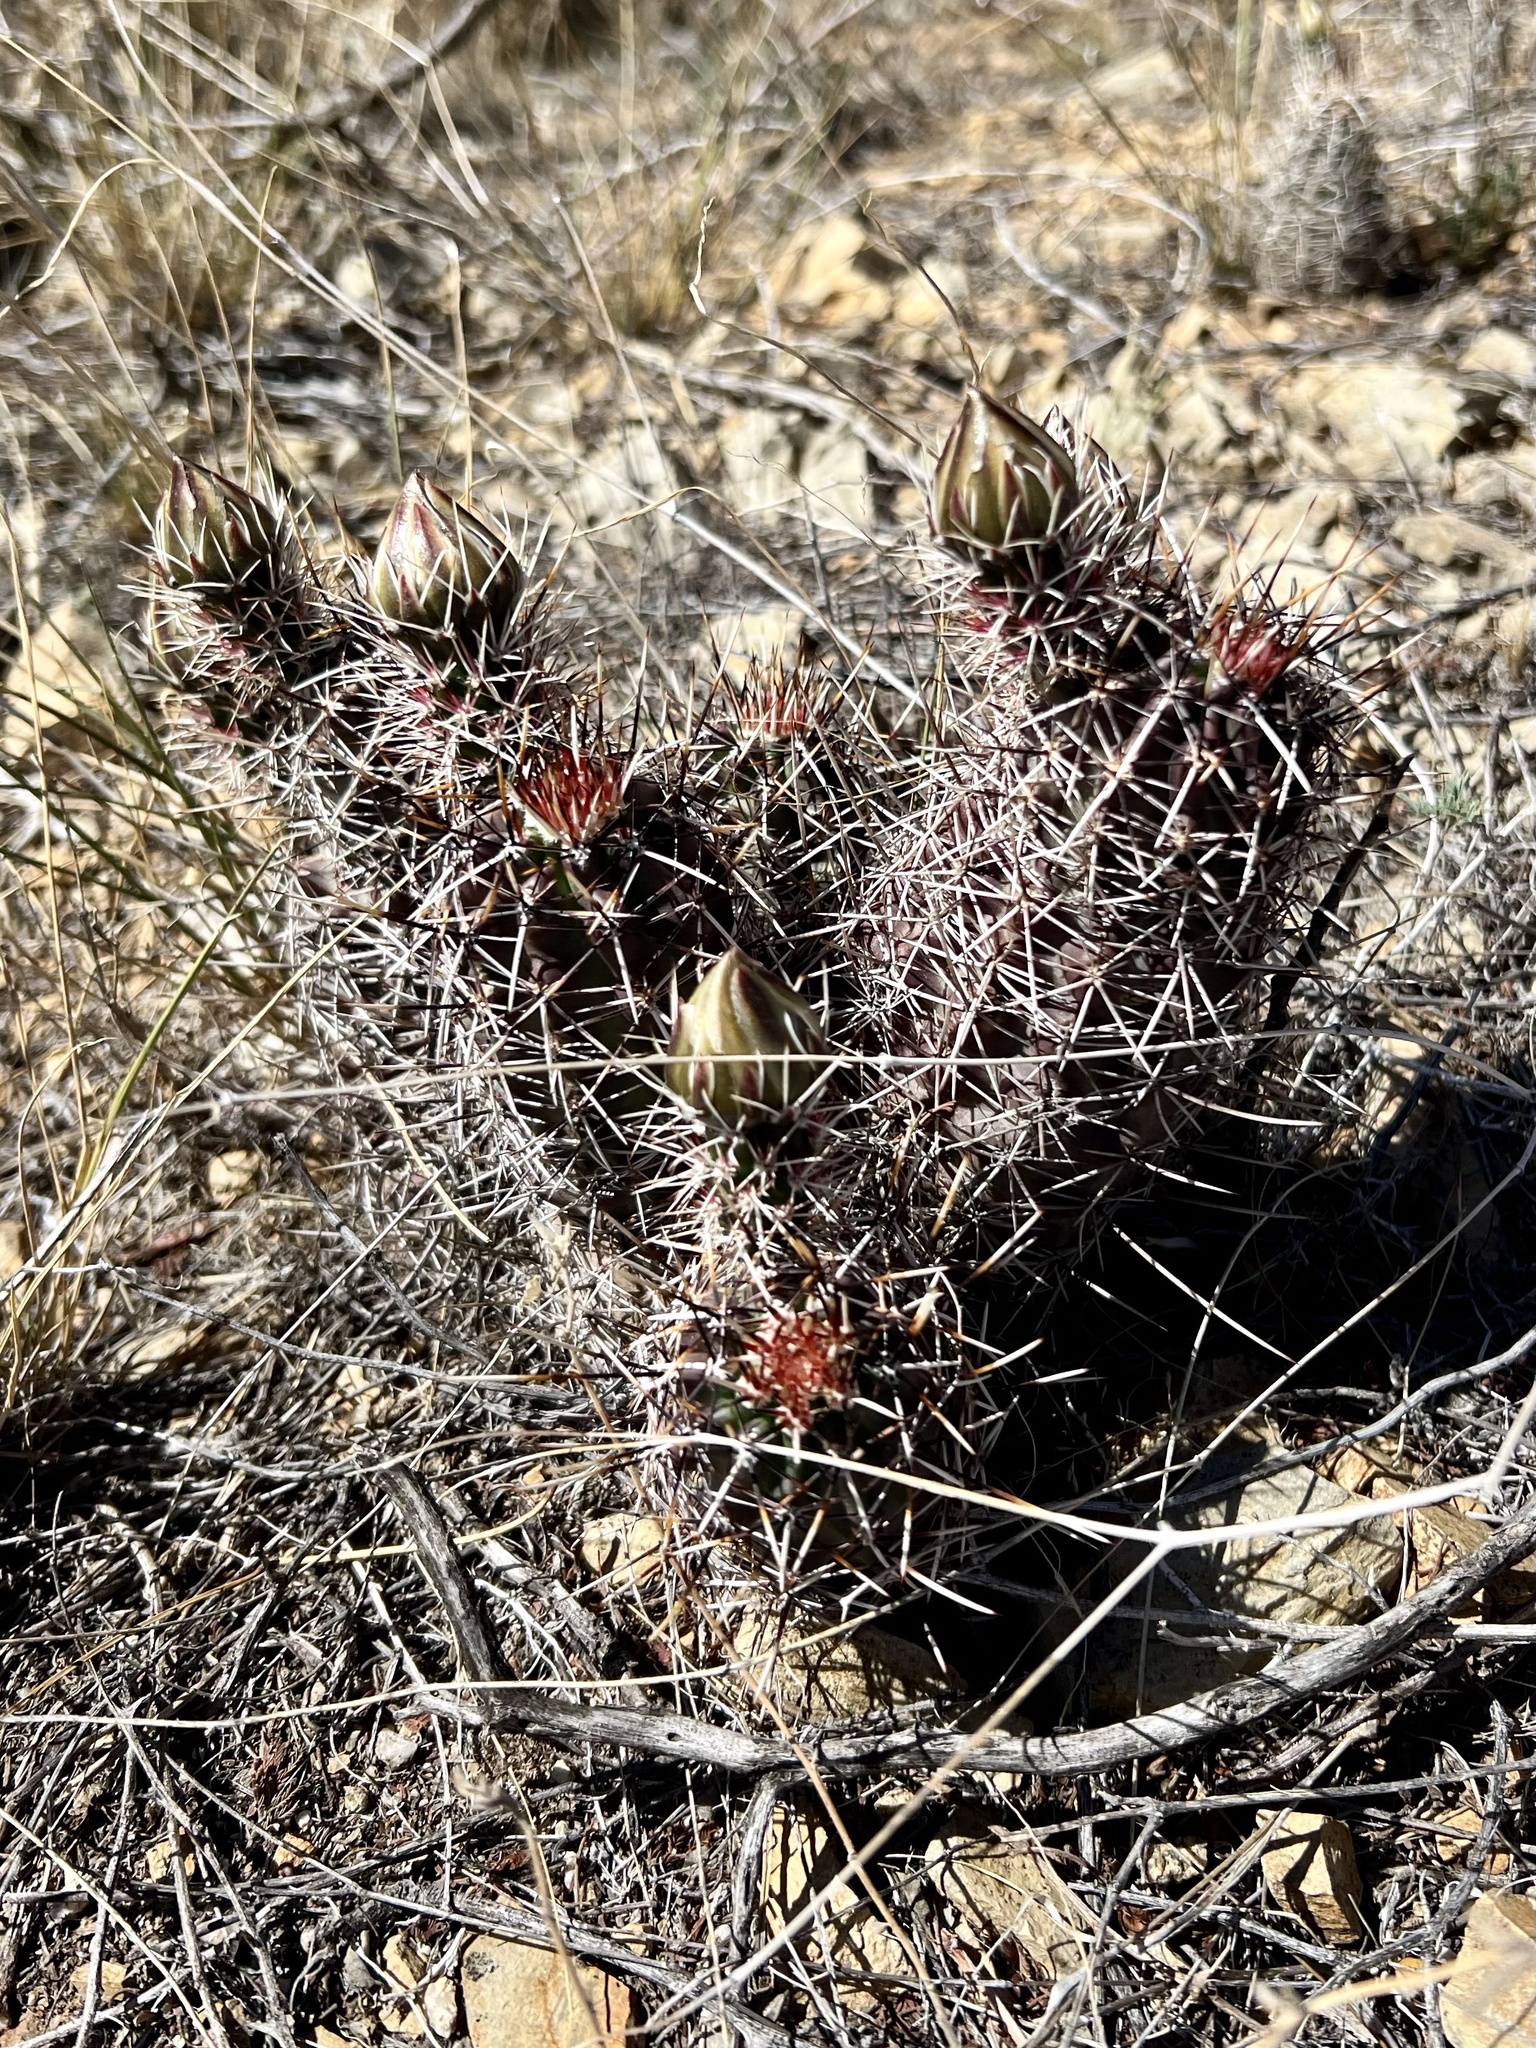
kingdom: Plantae
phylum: Tracheophyta
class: Magnoliopsida
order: Caryophyllales
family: Cactaceae
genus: Echinocereus
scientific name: Echinocereus fendleri
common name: Fendler's hedgehog cactus
